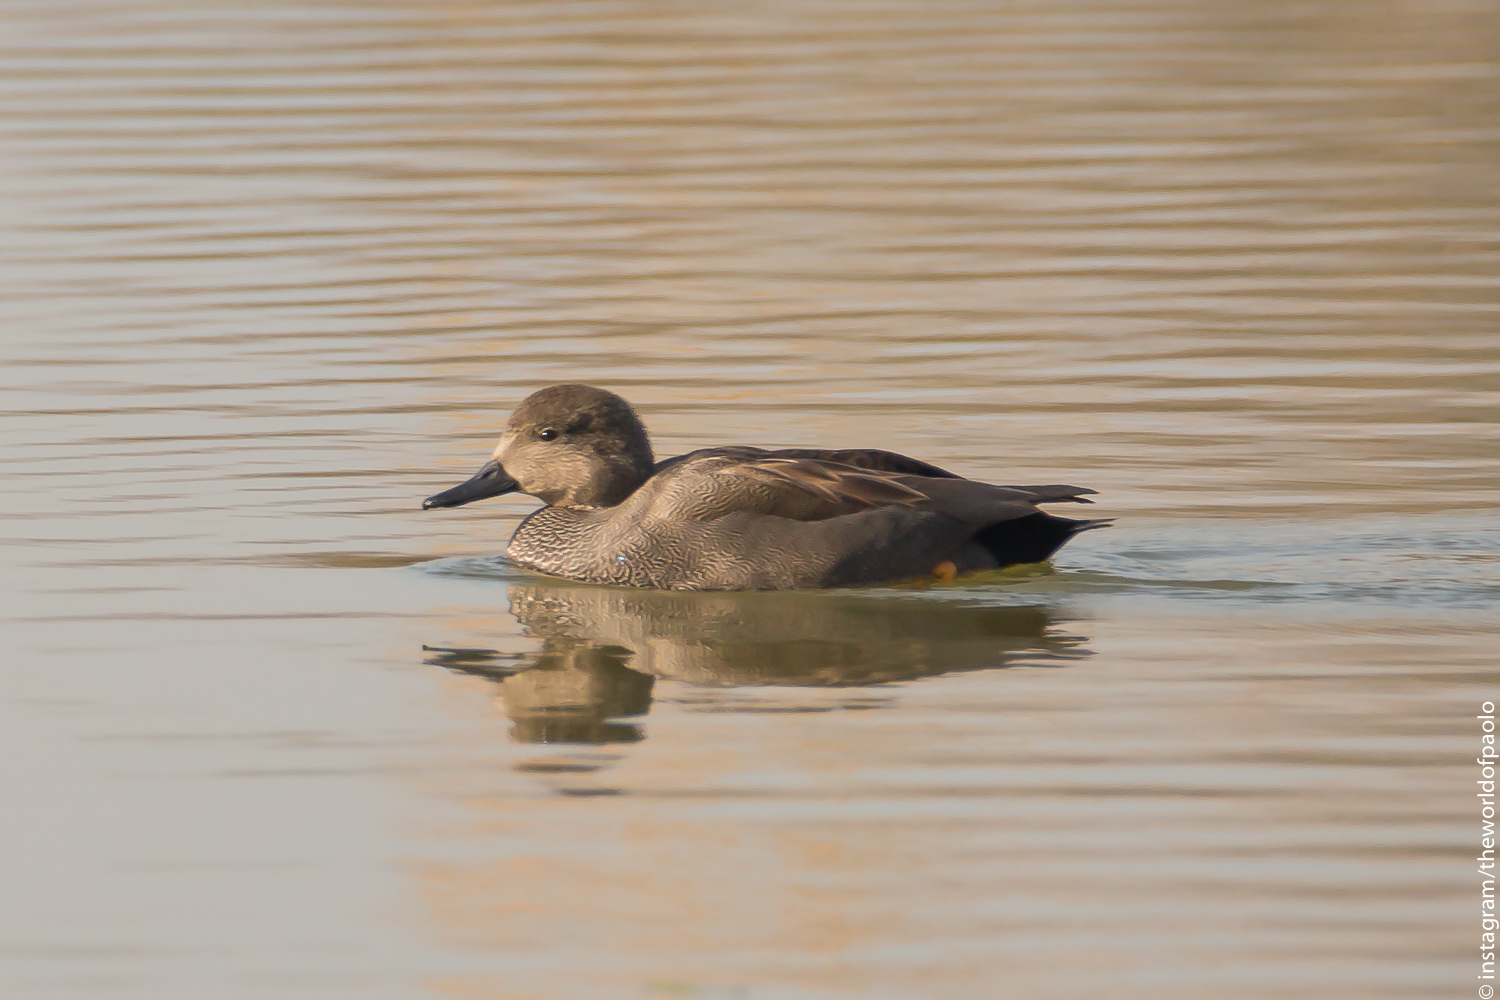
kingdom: Animalia
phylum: Chordata
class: Aves
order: Anseriformes
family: Anatidae
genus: Mareca
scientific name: Mareca strepera
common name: Gadwall
